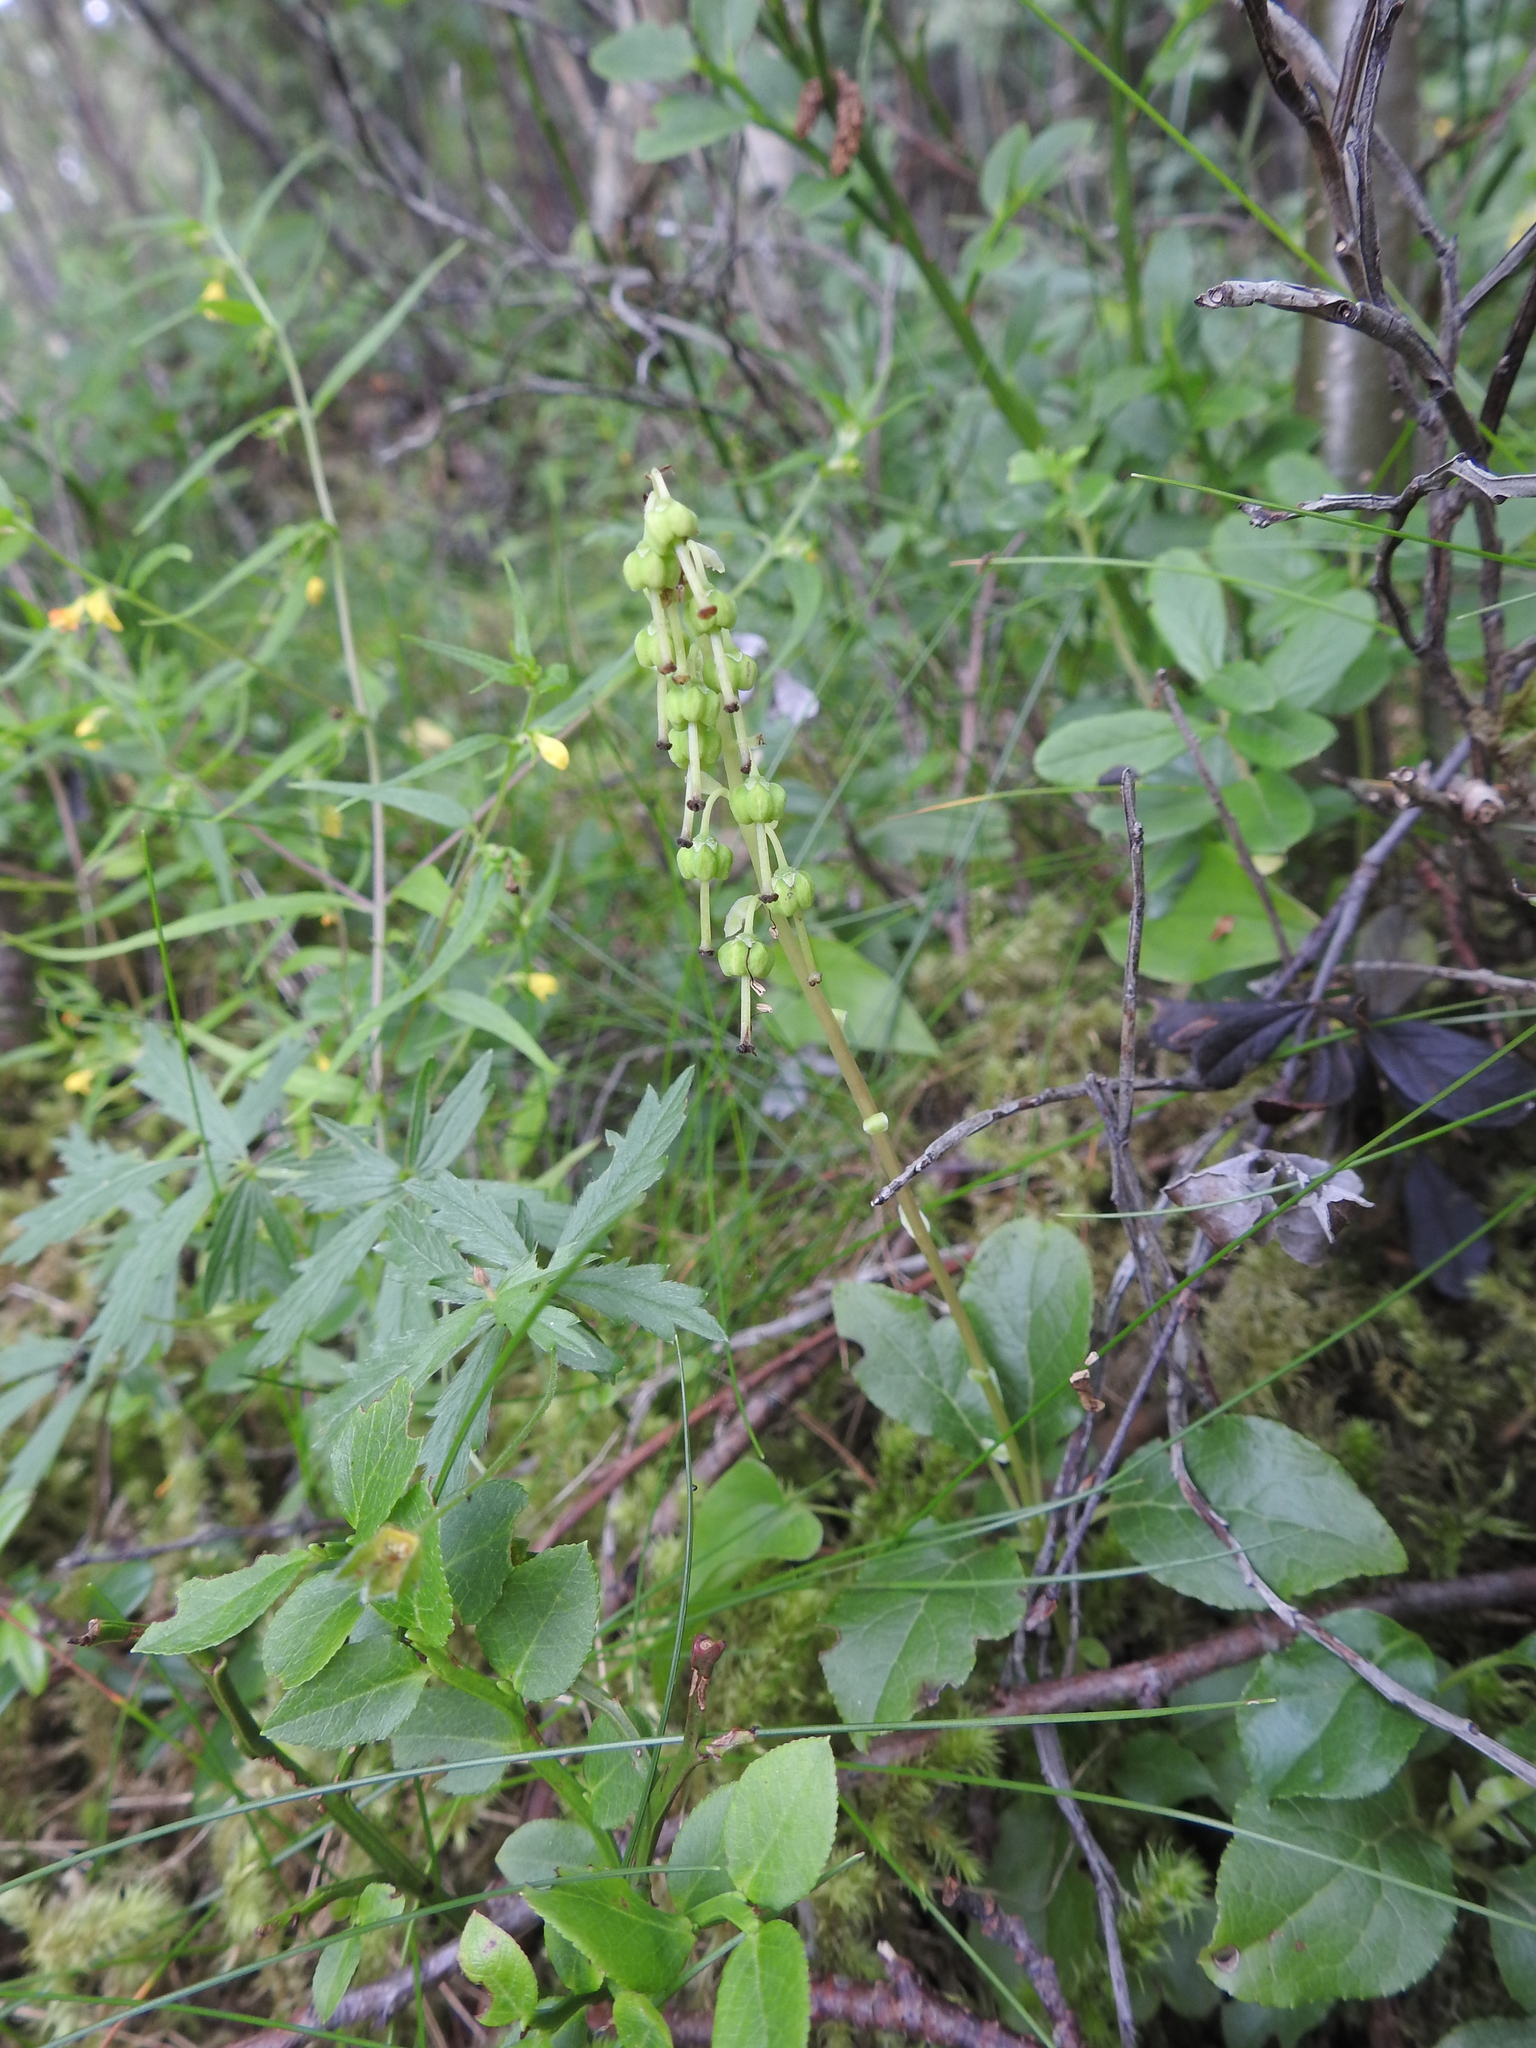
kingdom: Plantae
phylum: Tracheophyta
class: Magnoliopsida
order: Ericales
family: Ericaceae
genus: Orthilia
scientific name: Orthilia secunda
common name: One-sided orthilia
